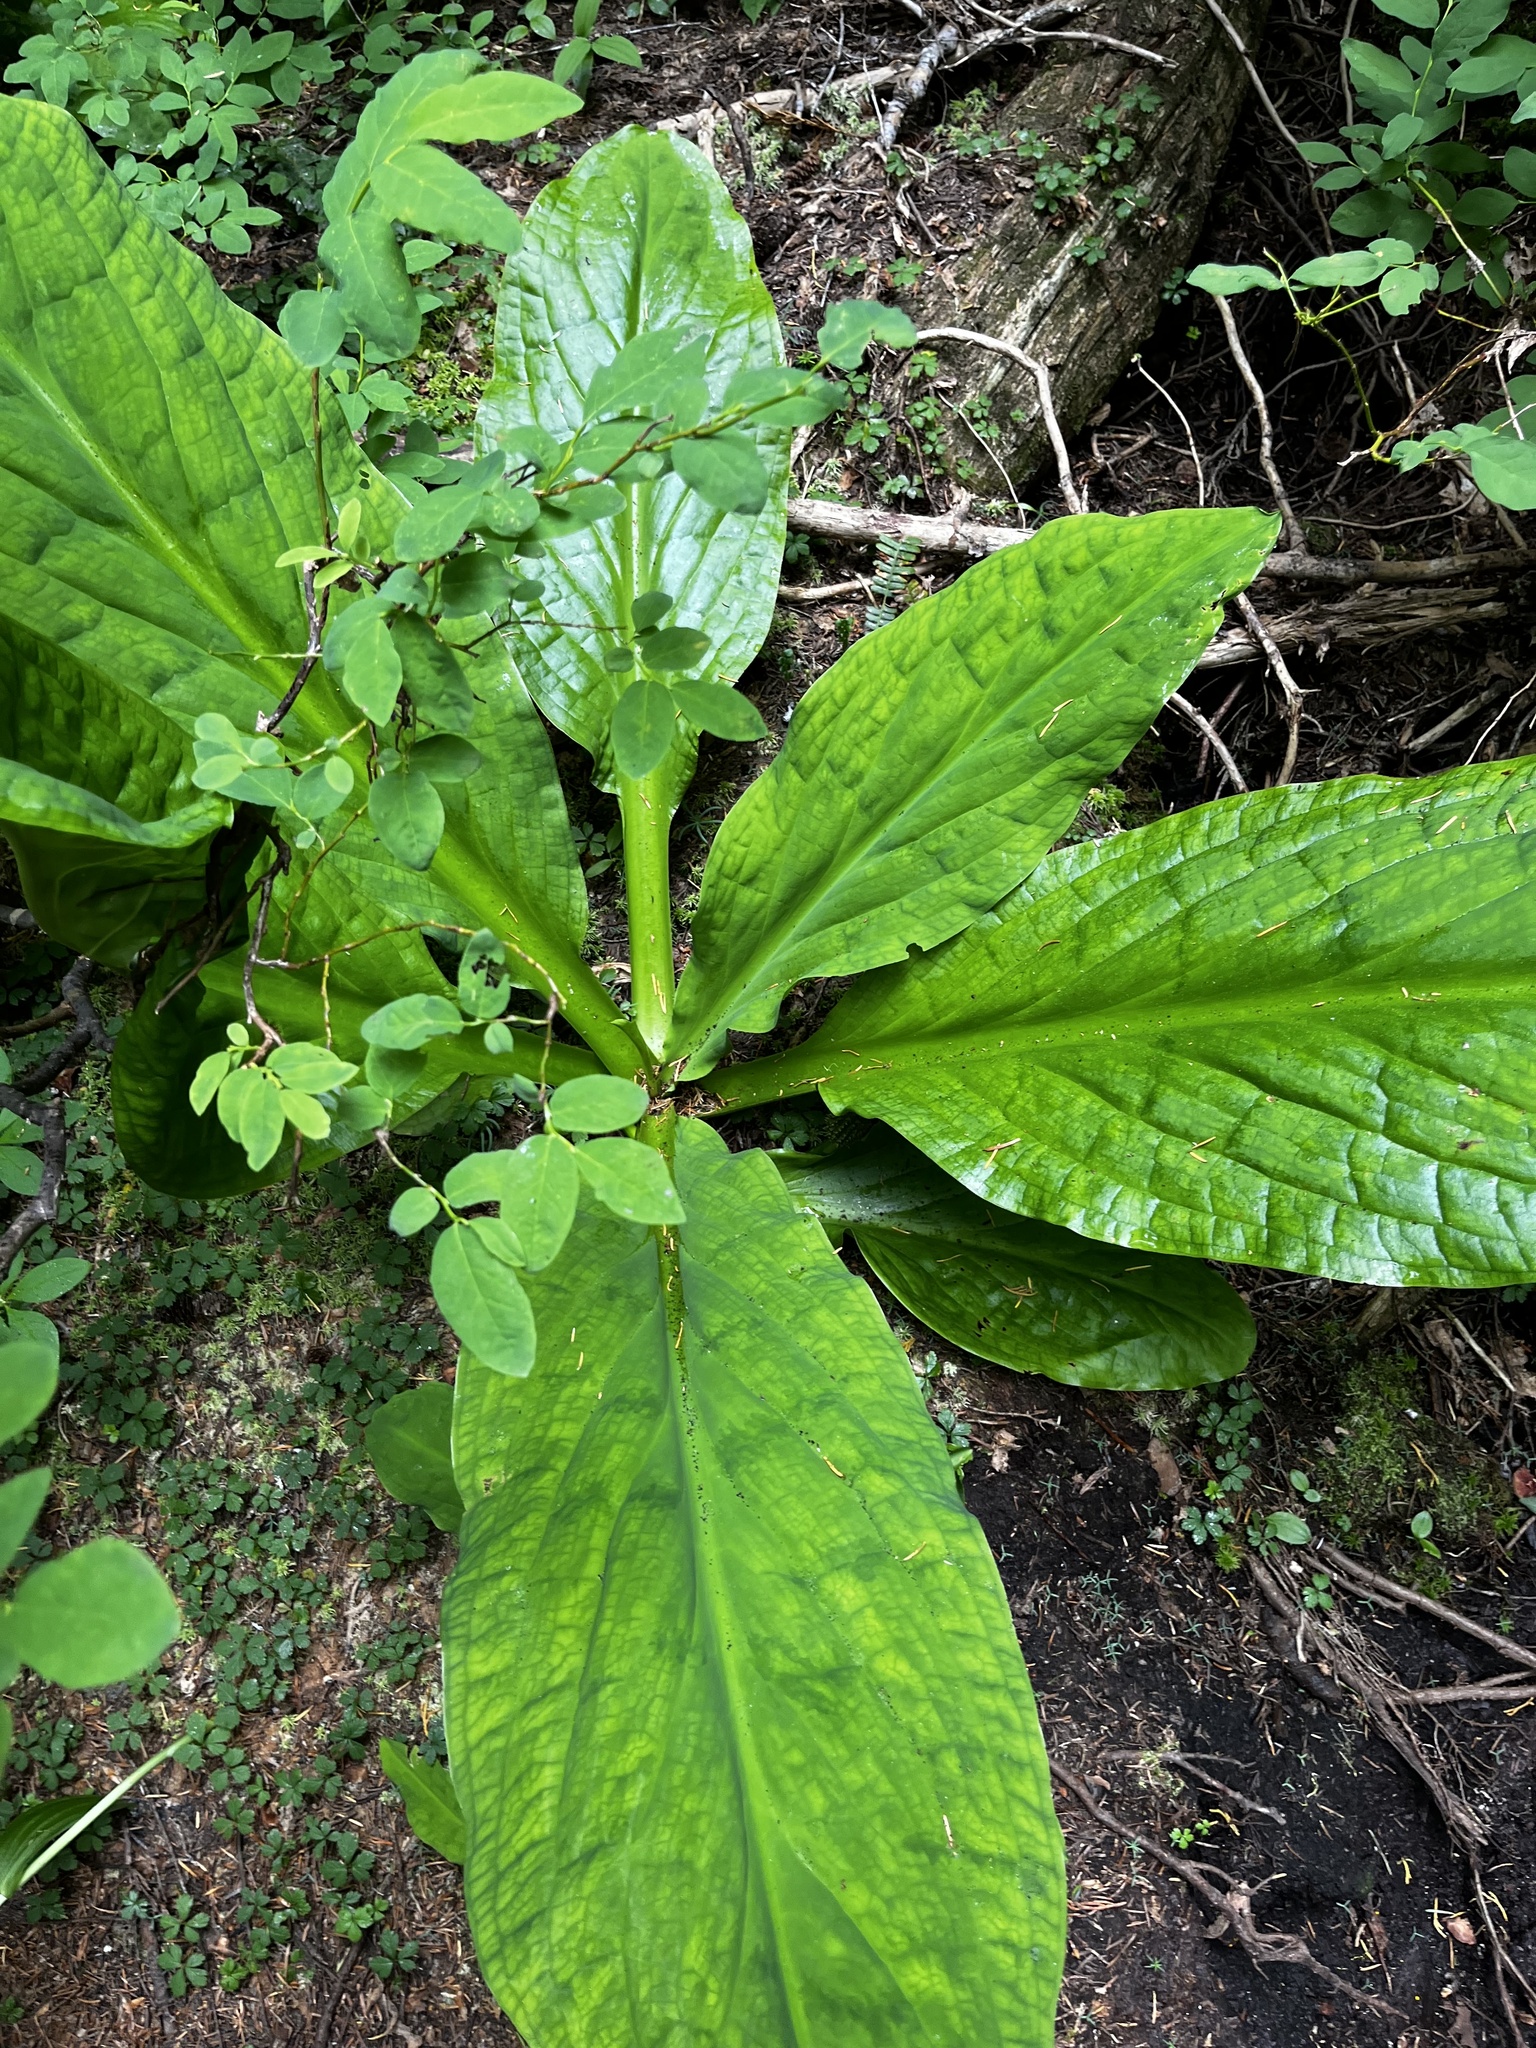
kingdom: Plantae
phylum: Tracheophyta
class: Liliopsida
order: Alismatales
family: Araceae
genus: Lysichiton
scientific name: Lysichiton americanus
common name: American skunk cabbage
